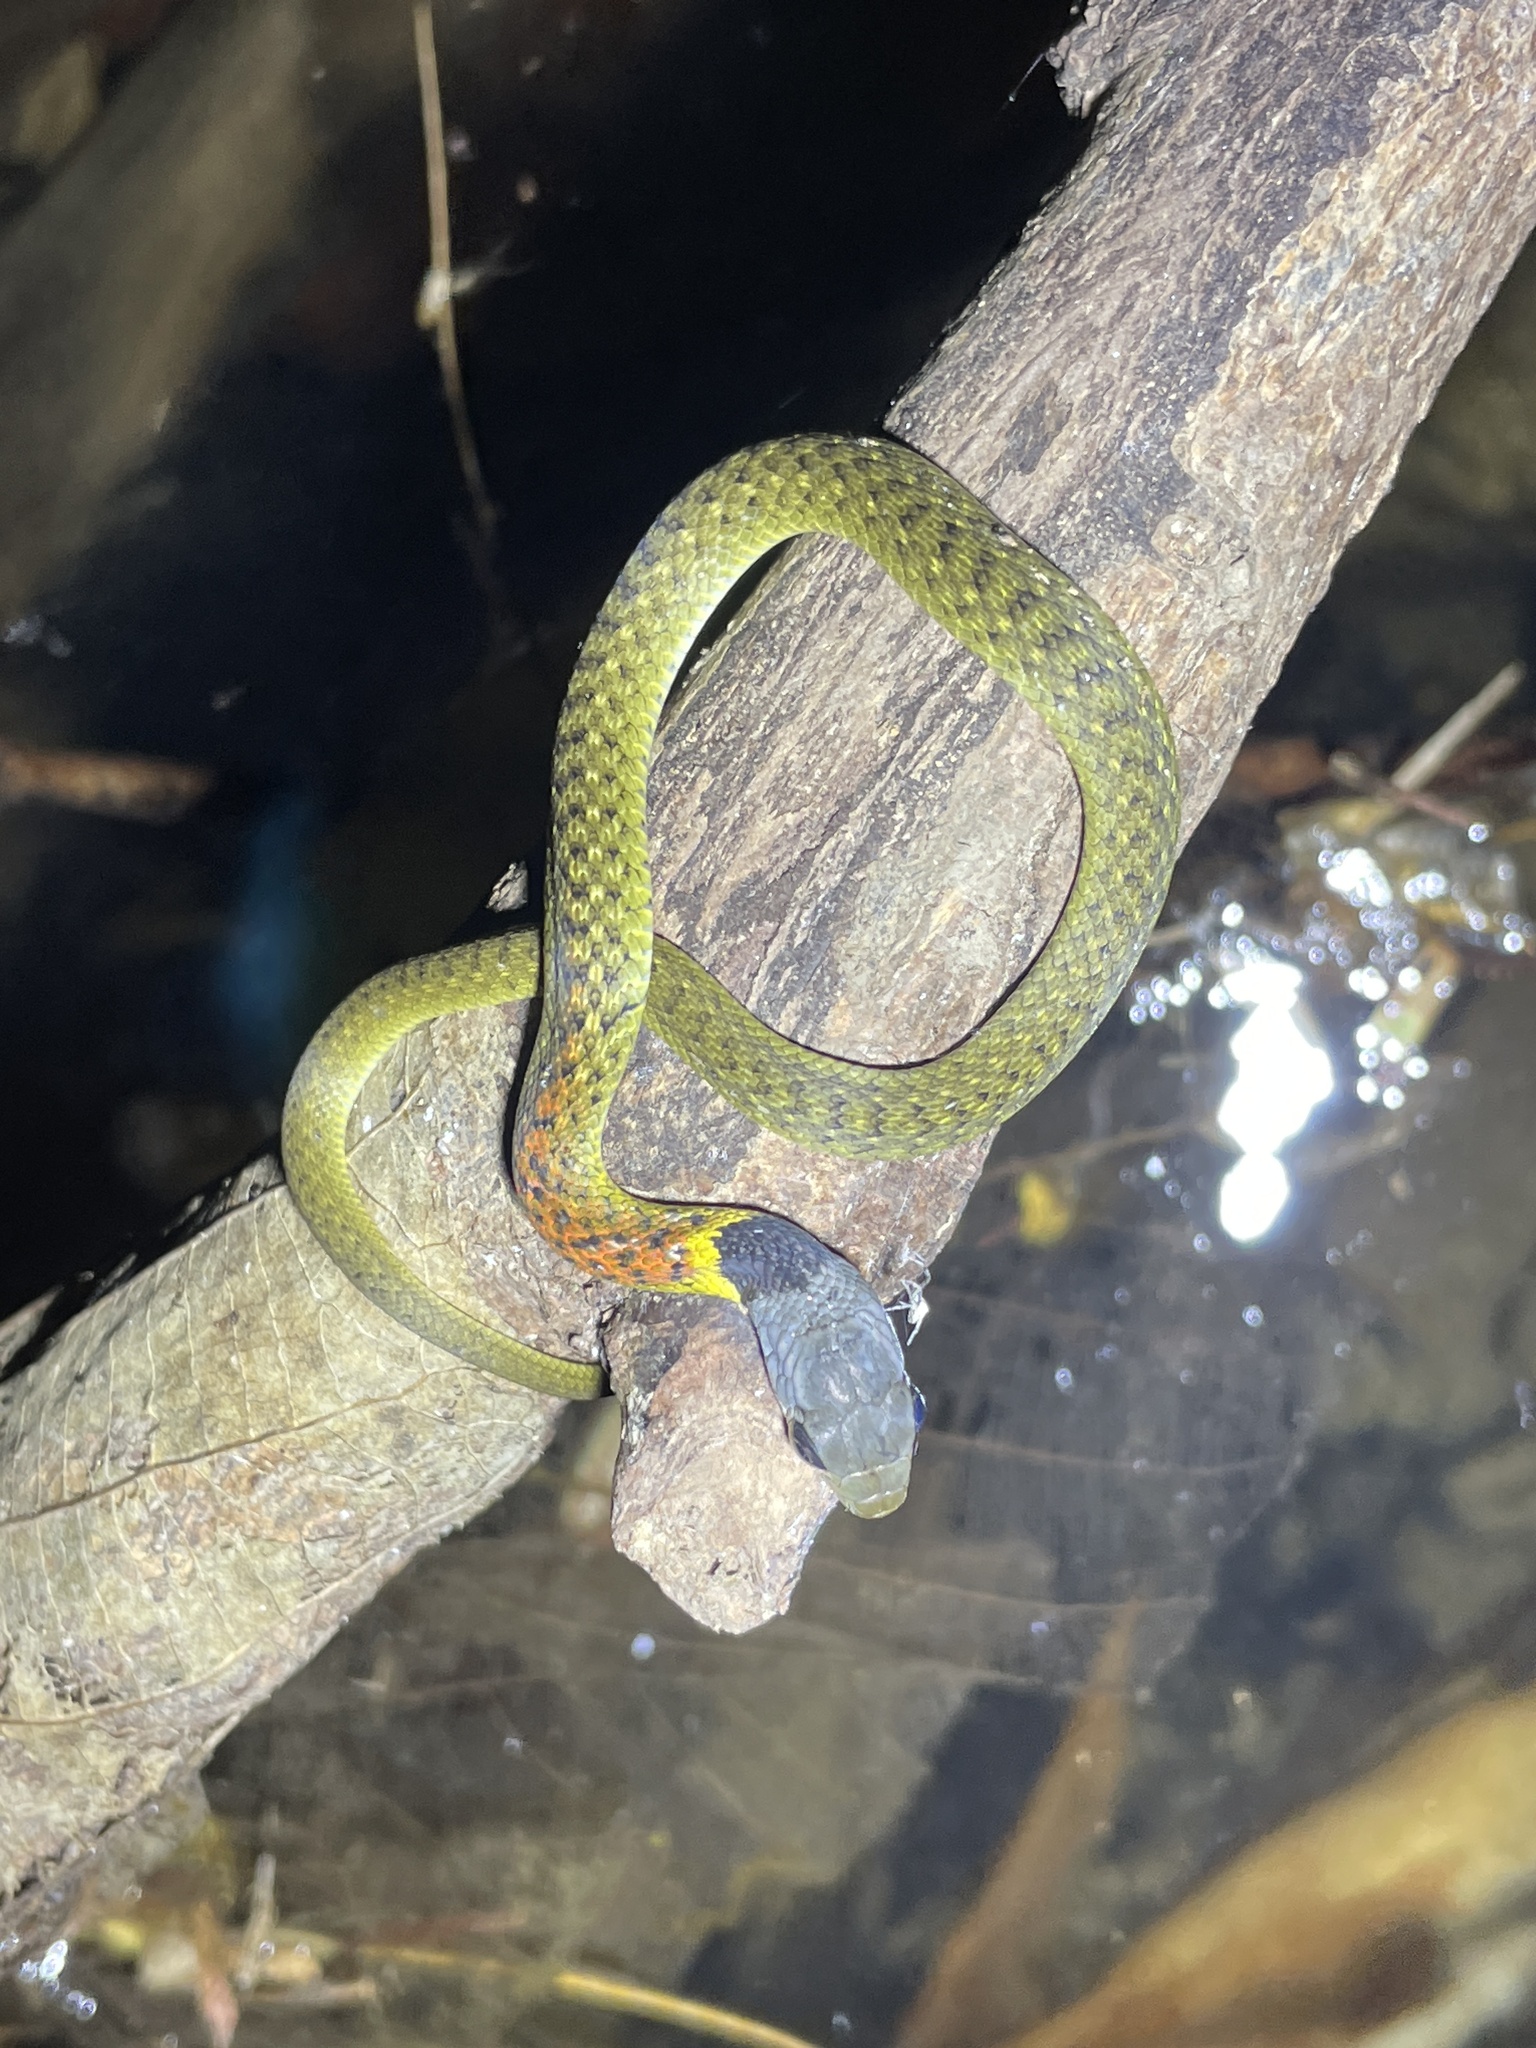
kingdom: Animalia
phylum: Chordata
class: Squamata
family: Colubridae
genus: Rhabdophis
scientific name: Rhabdophis helleri
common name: Heller’s red-necked keelback
